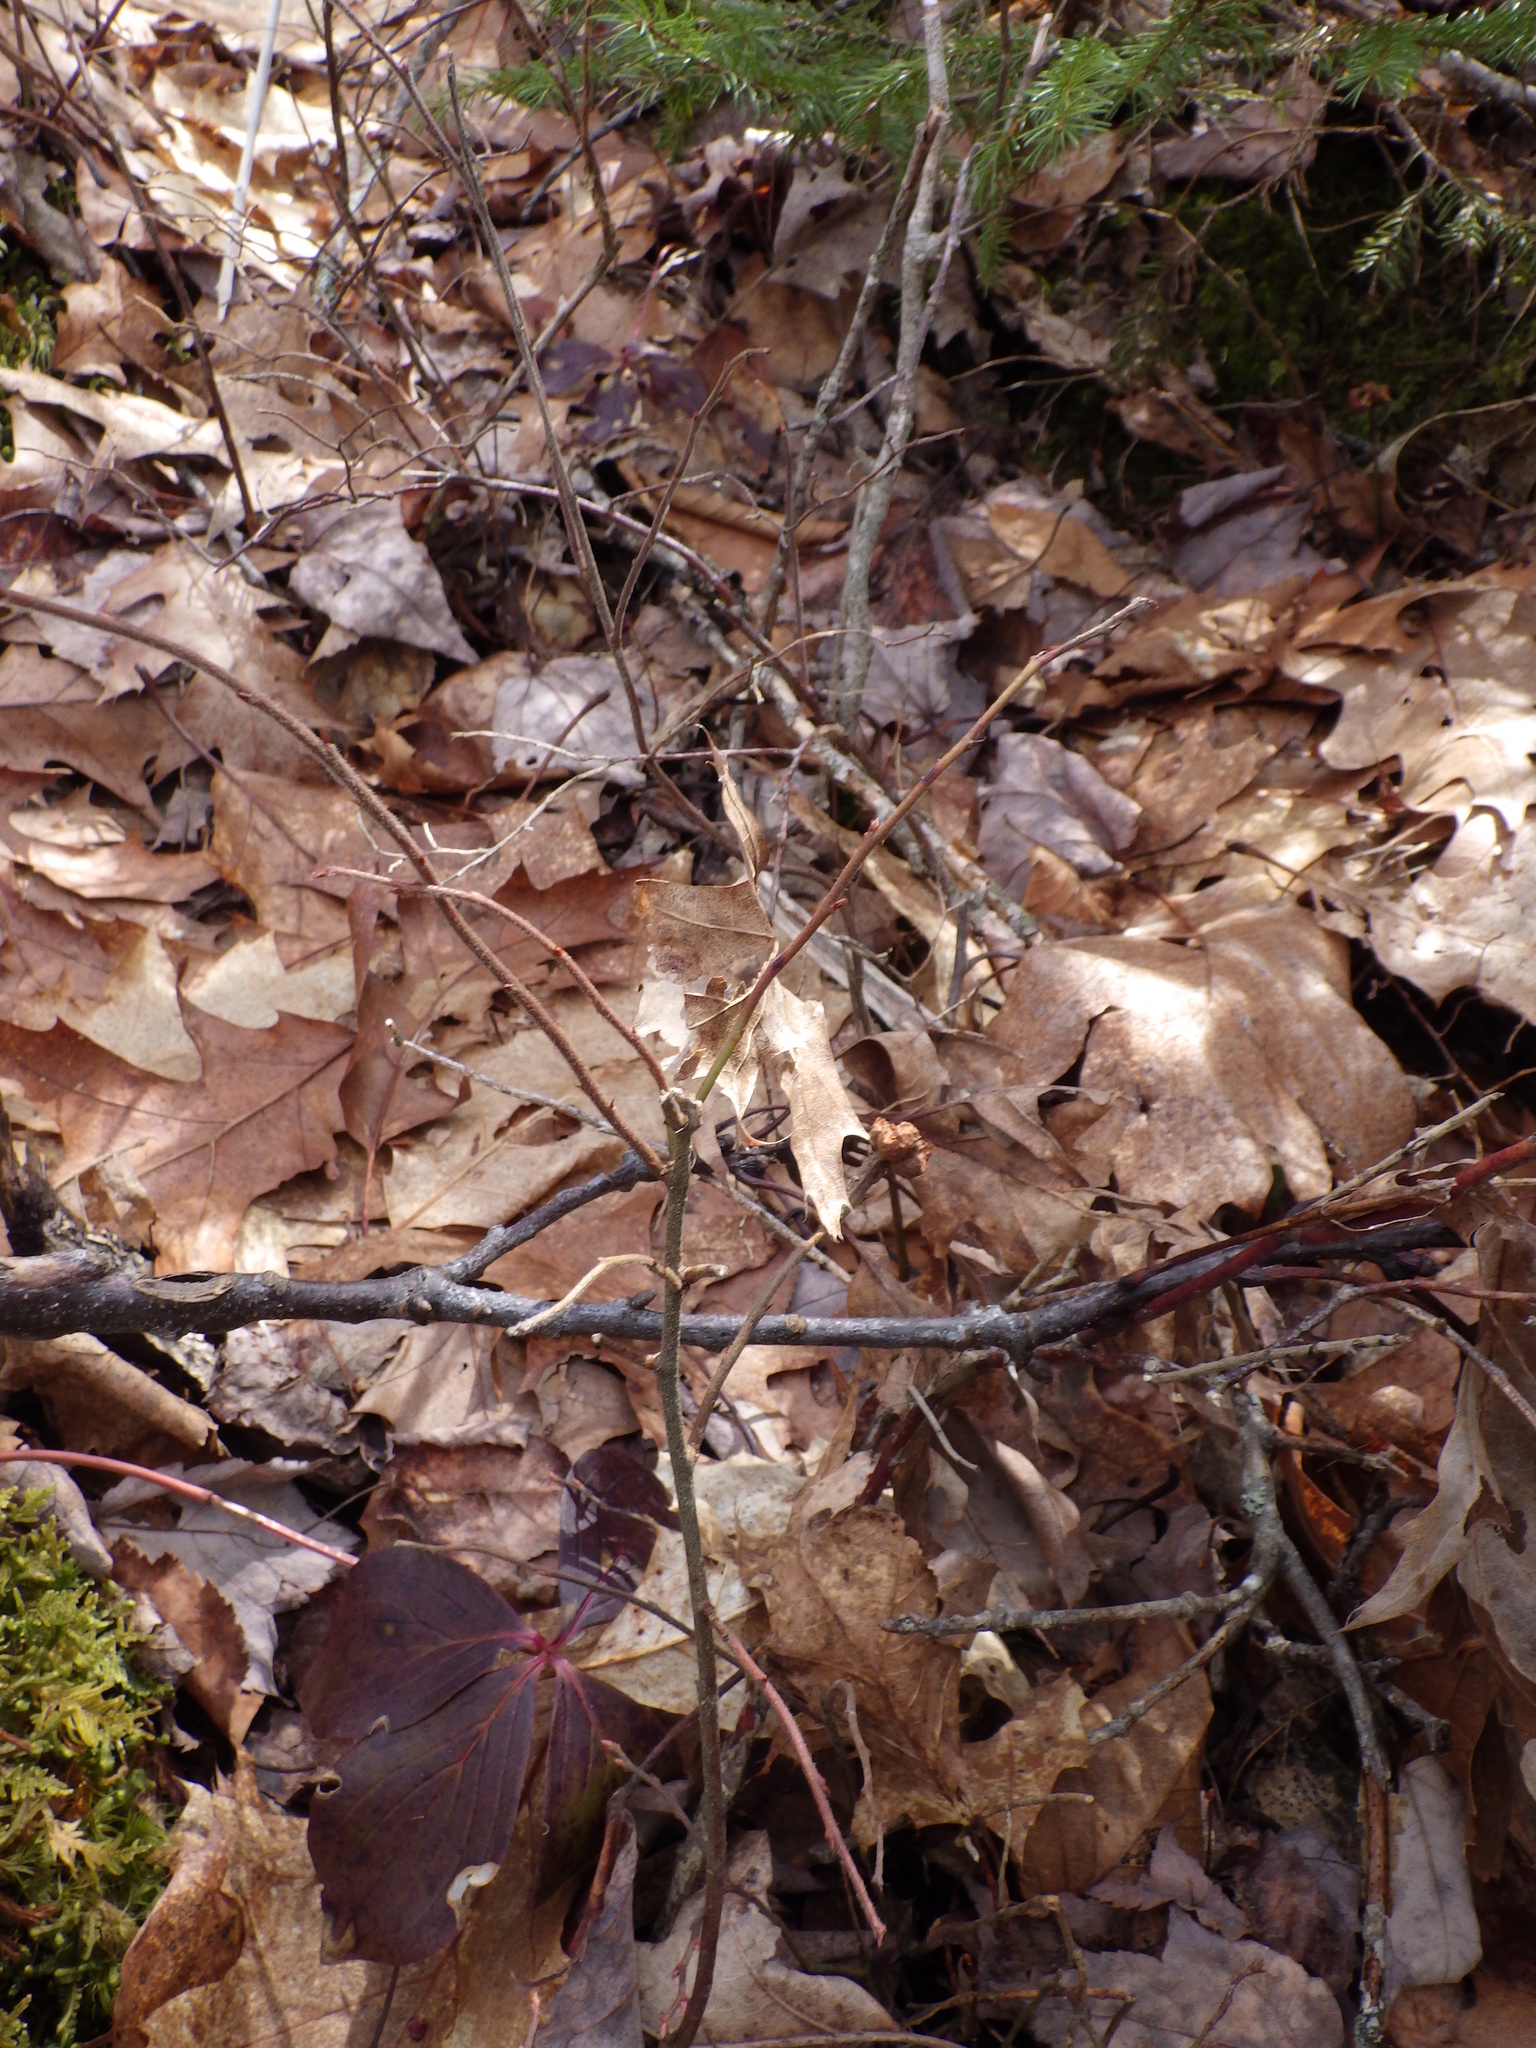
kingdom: Animalia
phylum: Arthropoda
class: Insecta
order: Hymenoptera
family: Pteromalidae
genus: Hemadas
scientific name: Hemadas nubilipennis
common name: Blueberry stem gall wasp
